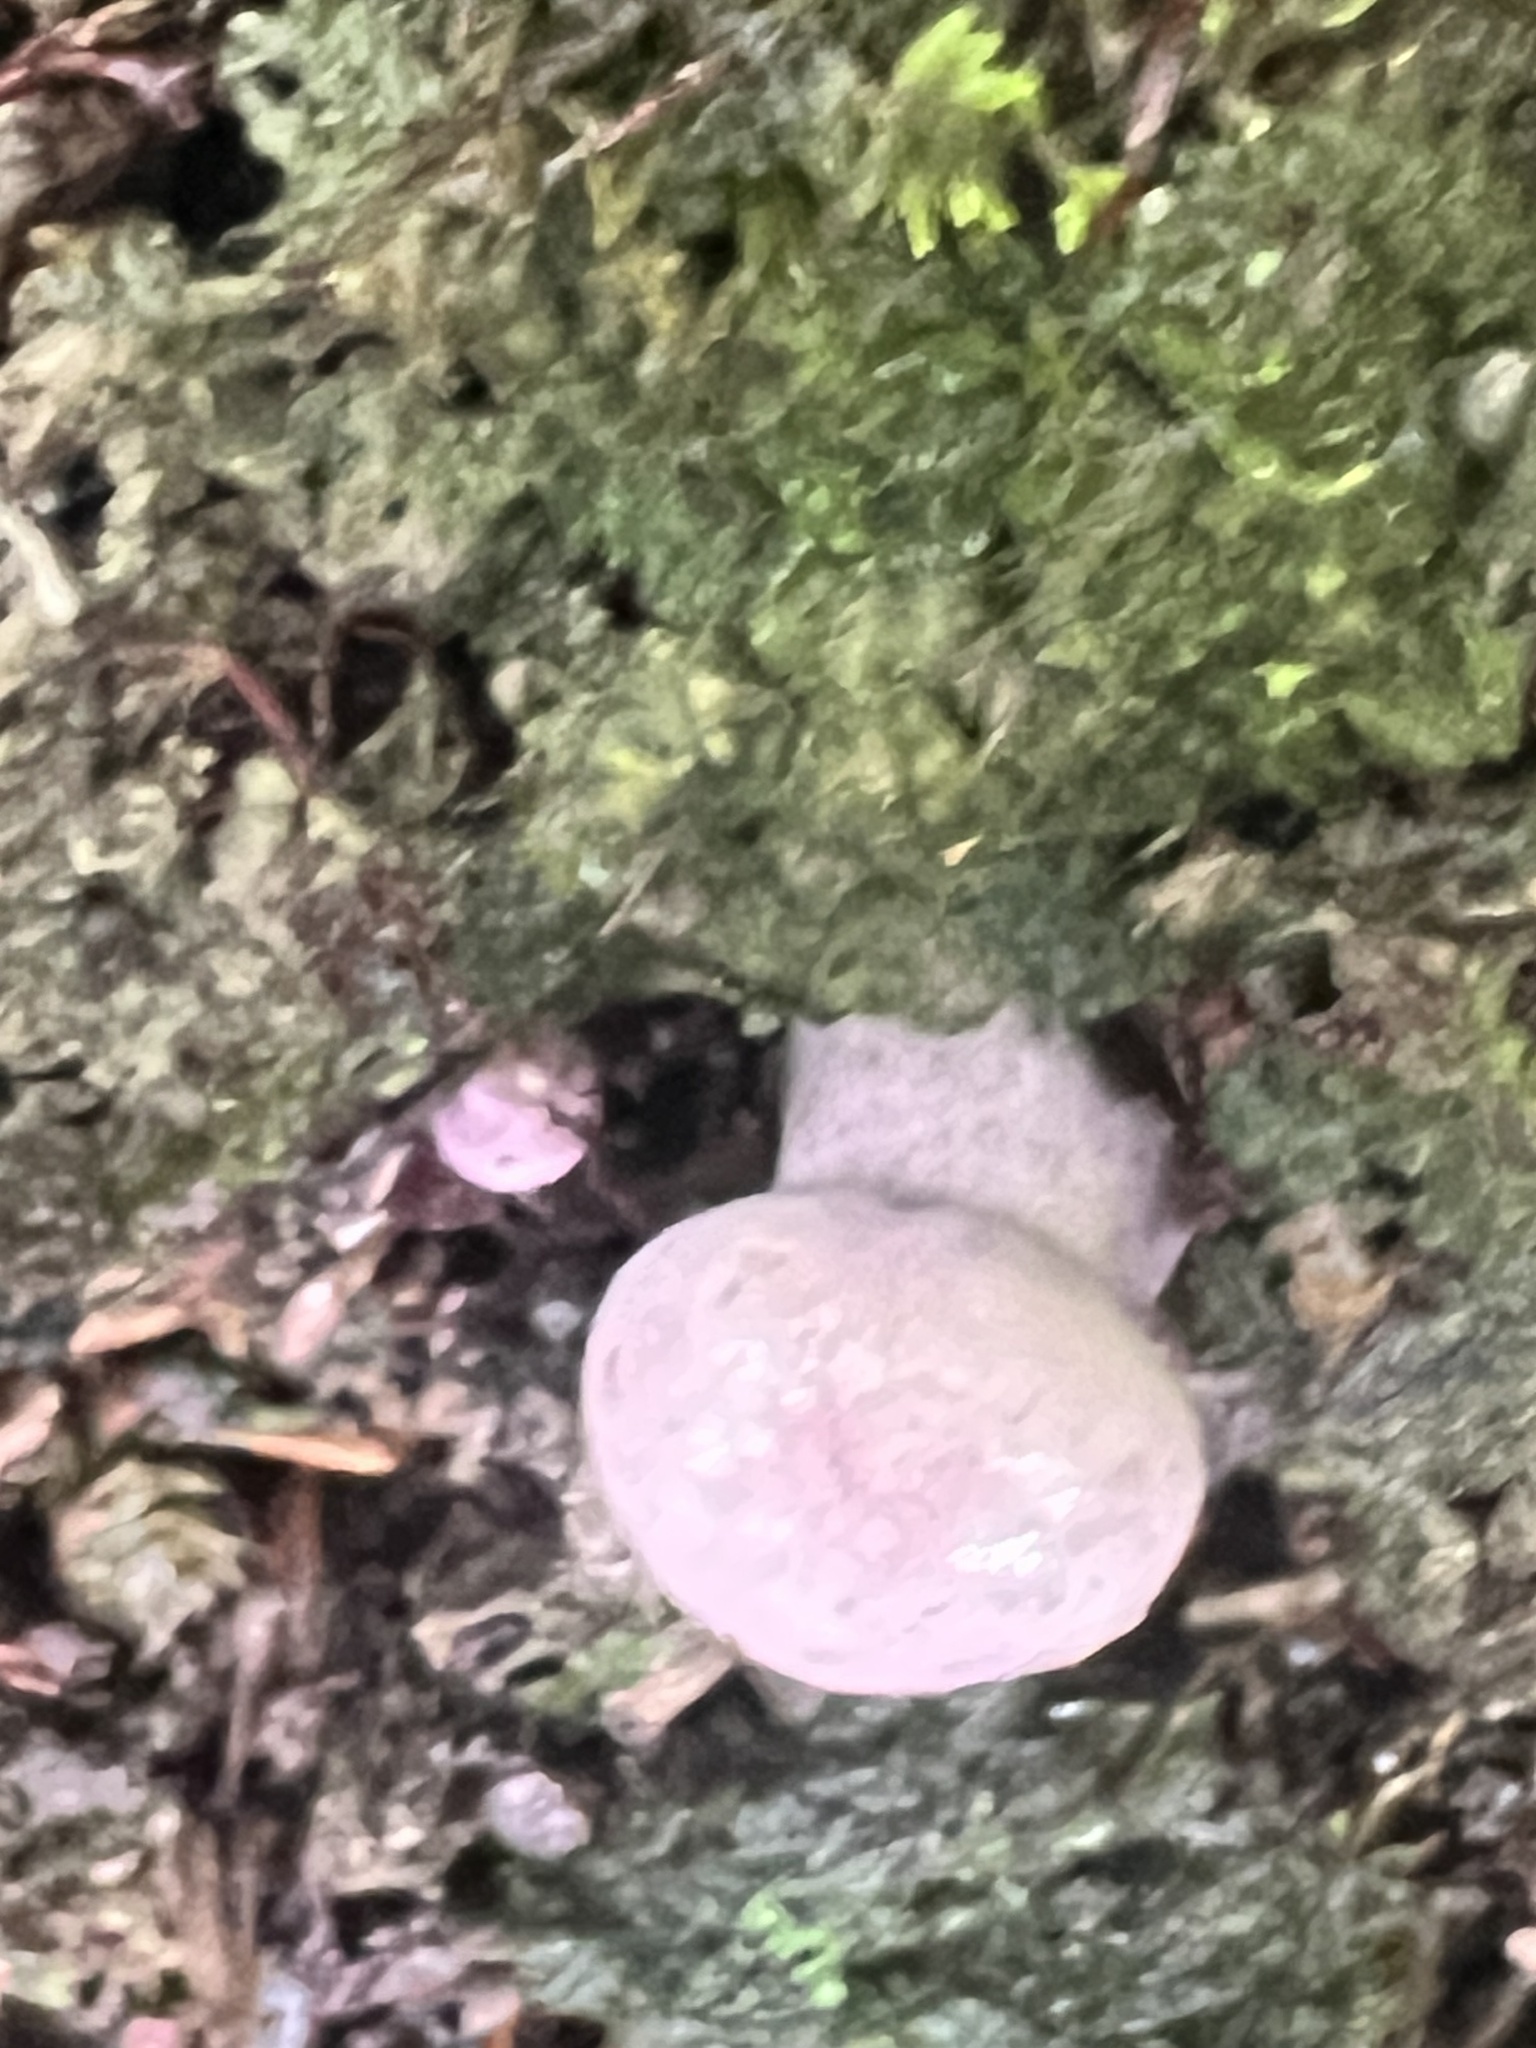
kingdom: Fungi
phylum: Basidiomycota
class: Agaricomycetes
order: Boletales
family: Boletaceae
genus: Tylopilus
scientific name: Tylopilus plumbeoviolaceus
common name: Violet gray bolete
